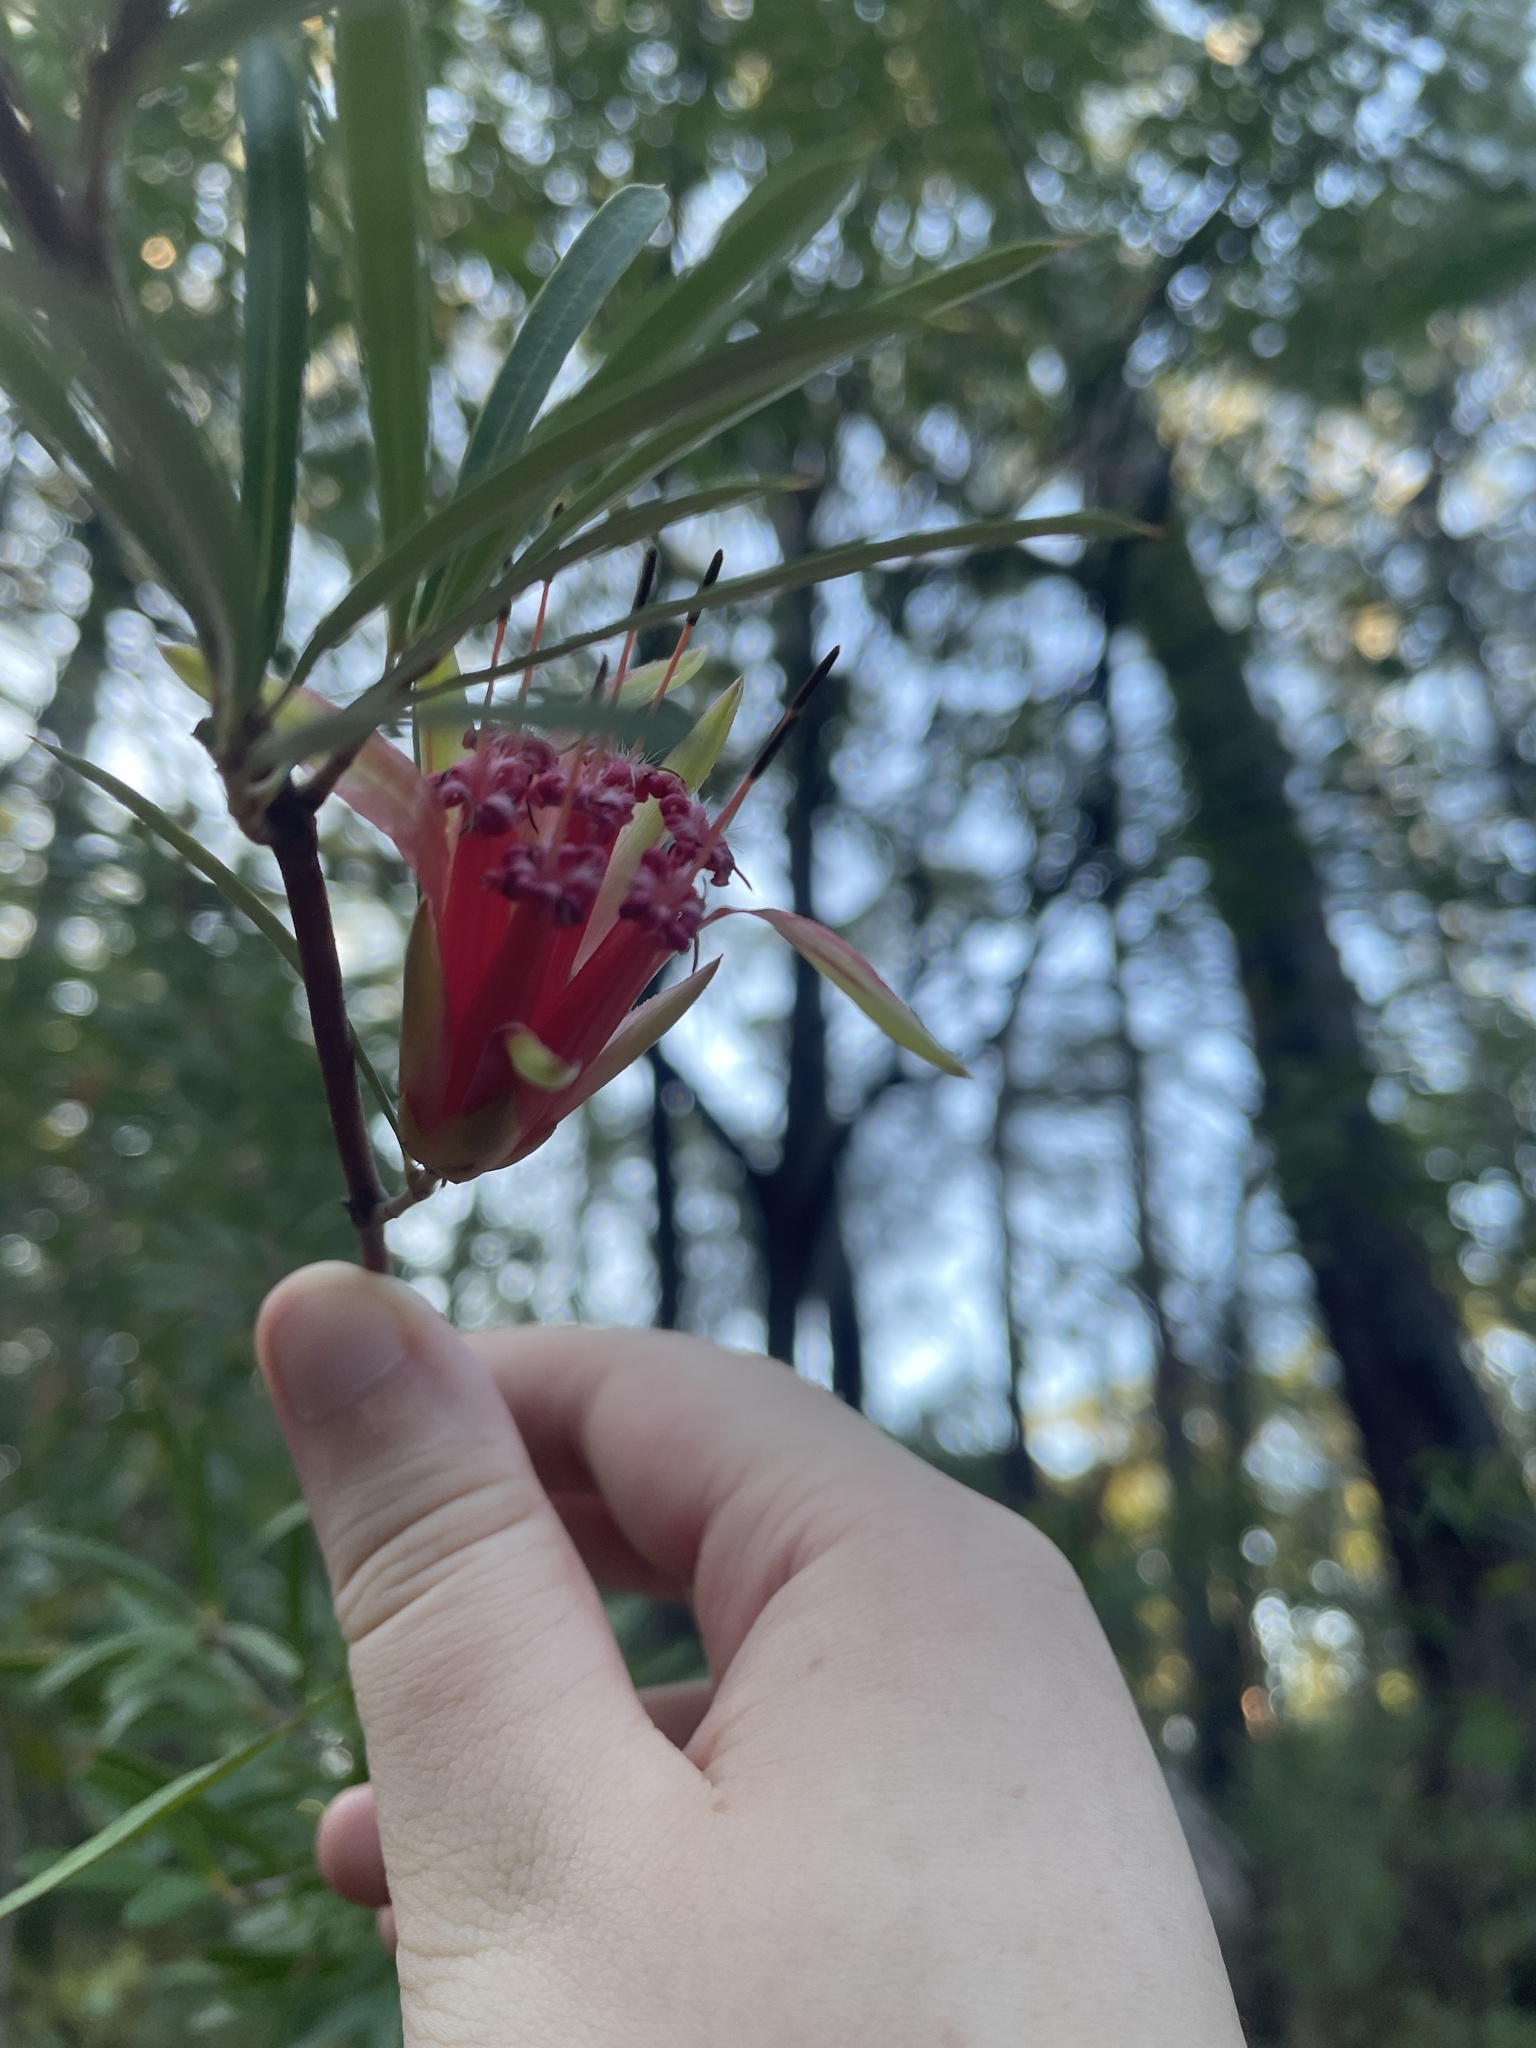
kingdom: Plantae
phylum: Tracheophyta
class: Magnoliopsida
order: Proteales
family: Proteaceae
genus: Lambertia
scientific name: Lambertia formosa
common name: Mountain-devil
